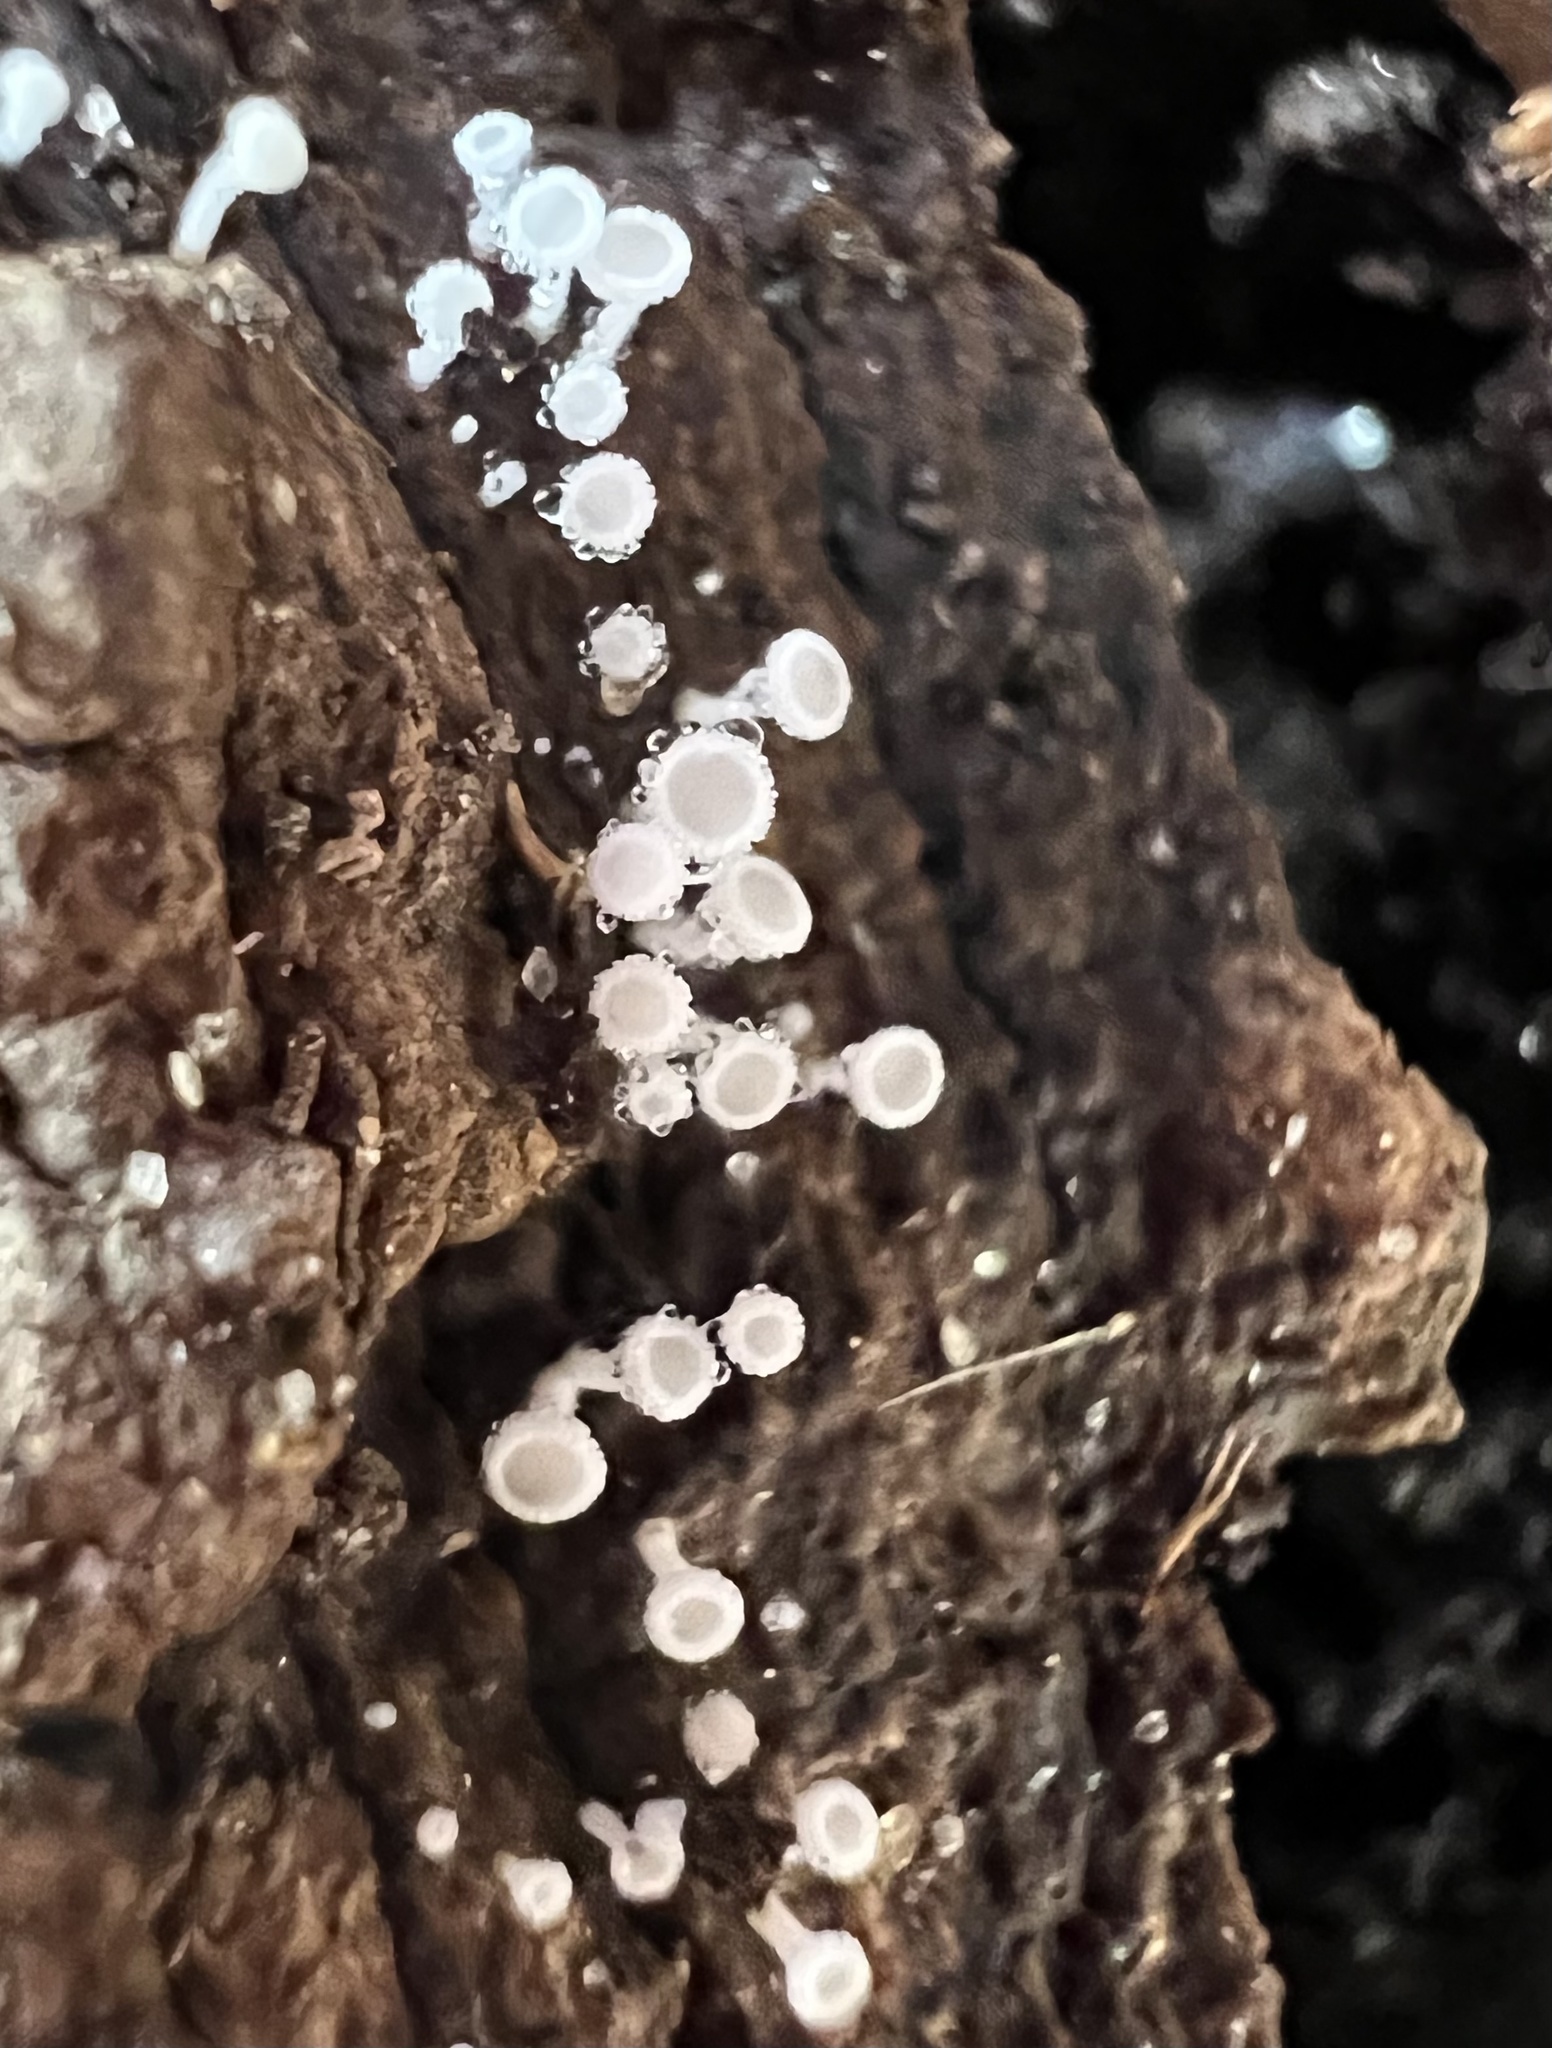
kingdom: Fungi
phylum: Ascomycota
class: Leotiomycetes
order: Helotiales
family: Lachnaceae
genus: Lachnum
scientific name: Lachnum virgineum
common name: Snowy disco
